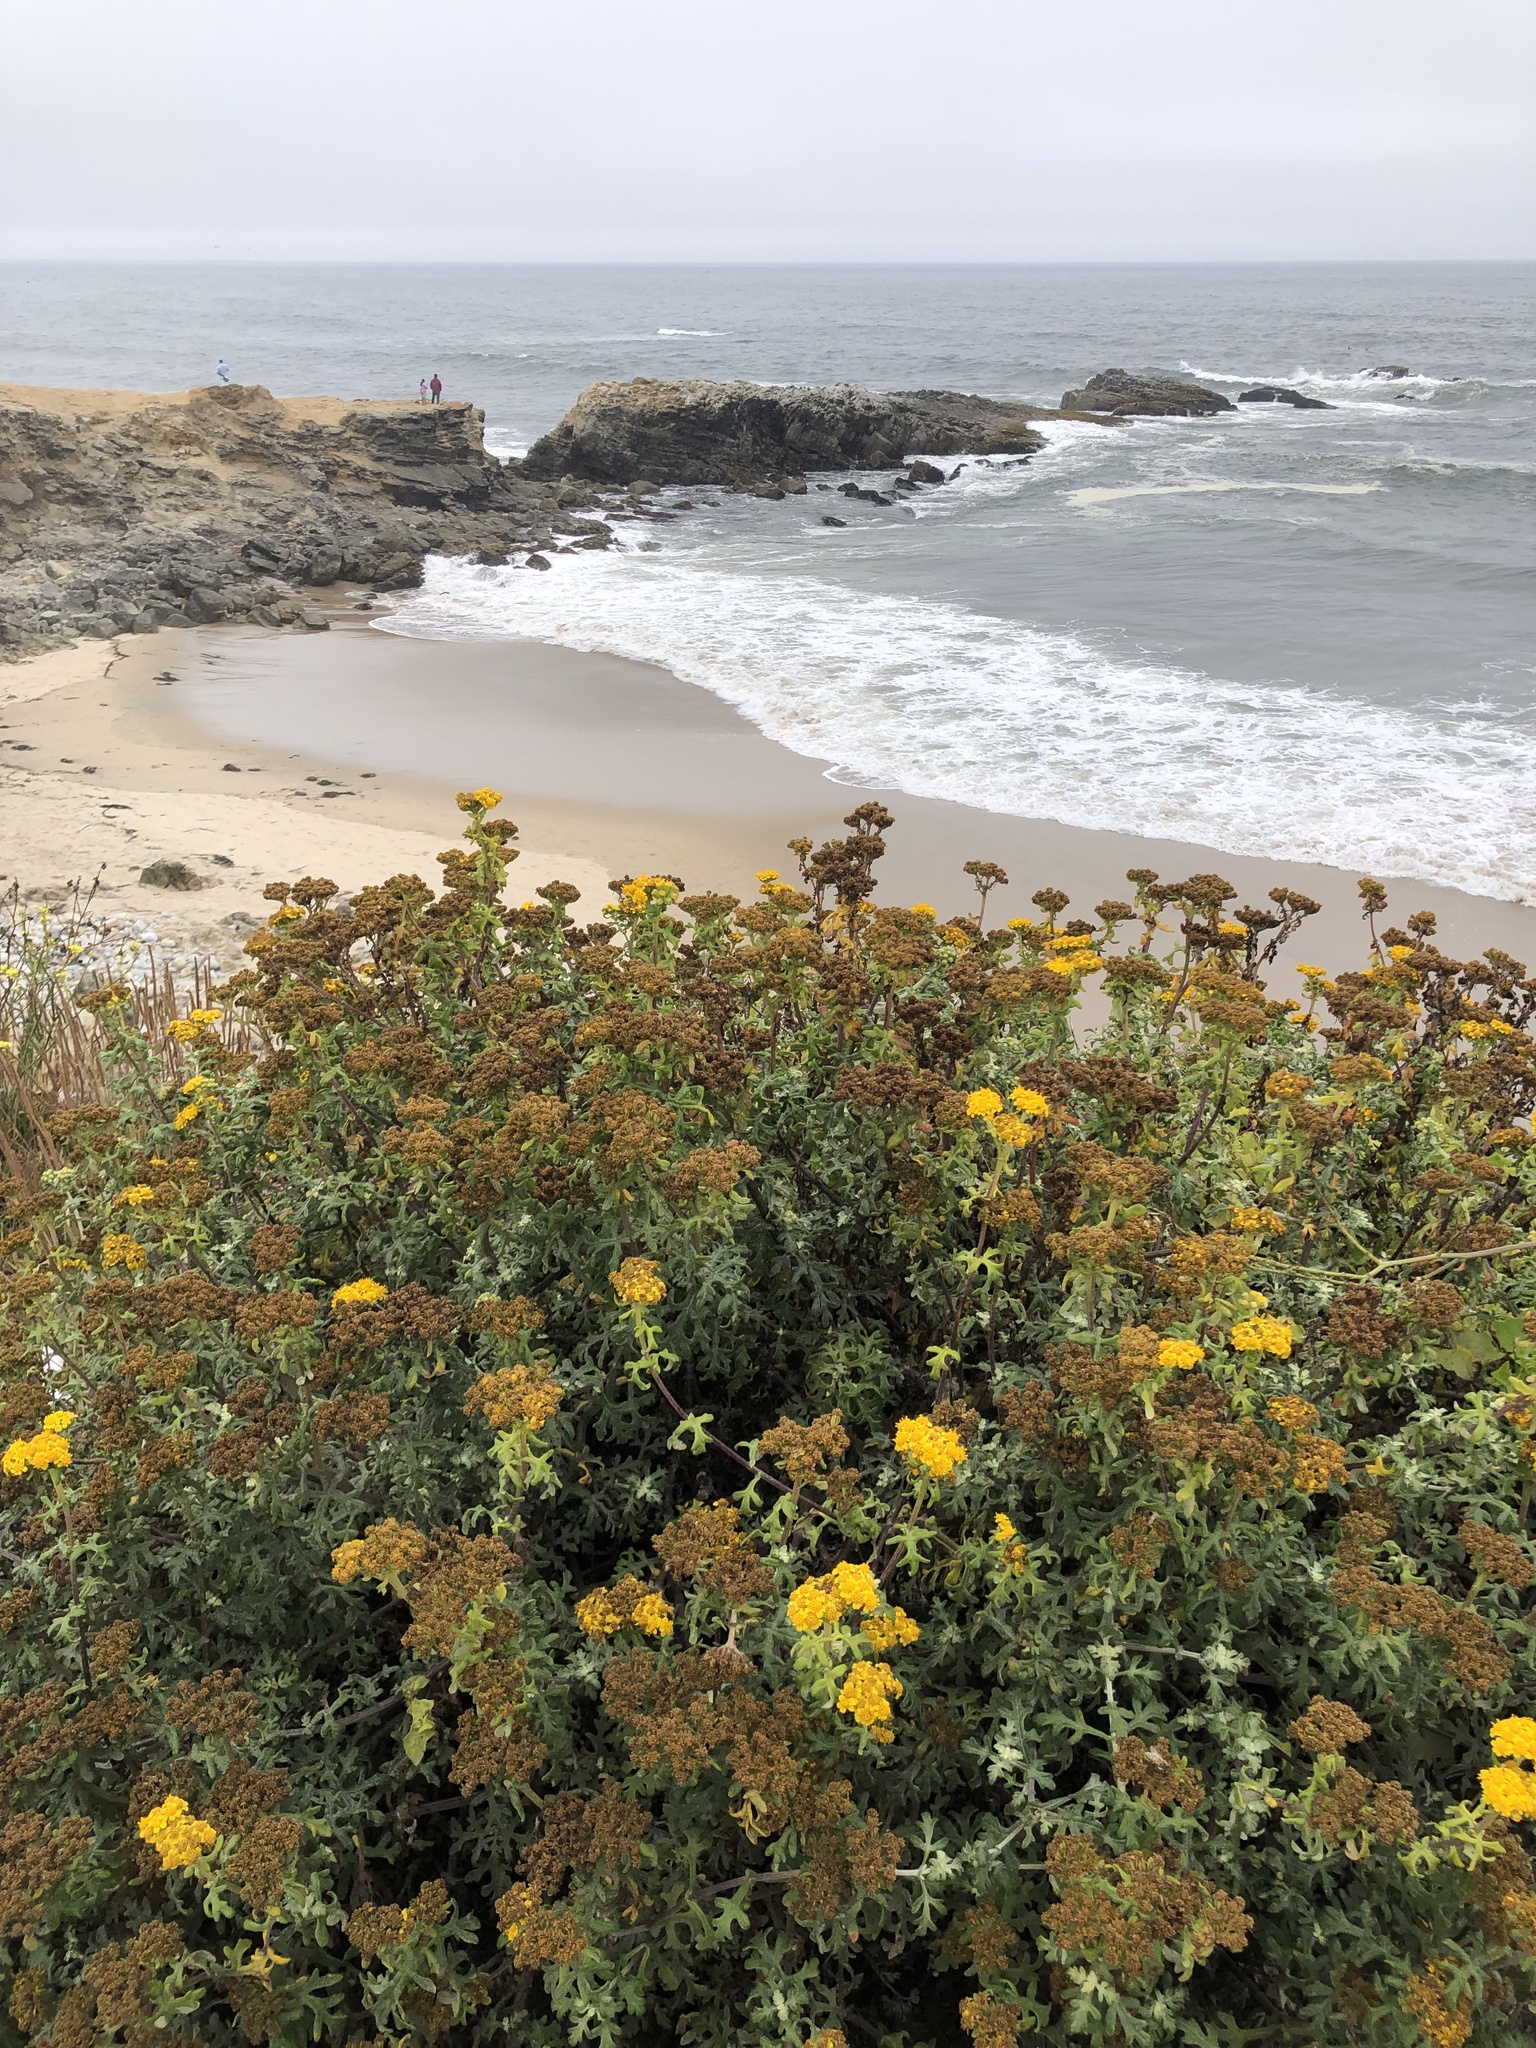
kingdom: Plantae
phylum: Tracheophyta
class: Magnoliopsida
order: Asterales
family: Asteraceae
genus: Eriophyllum
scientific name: Eriophyllum staechadifolium
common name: Lizardtail
